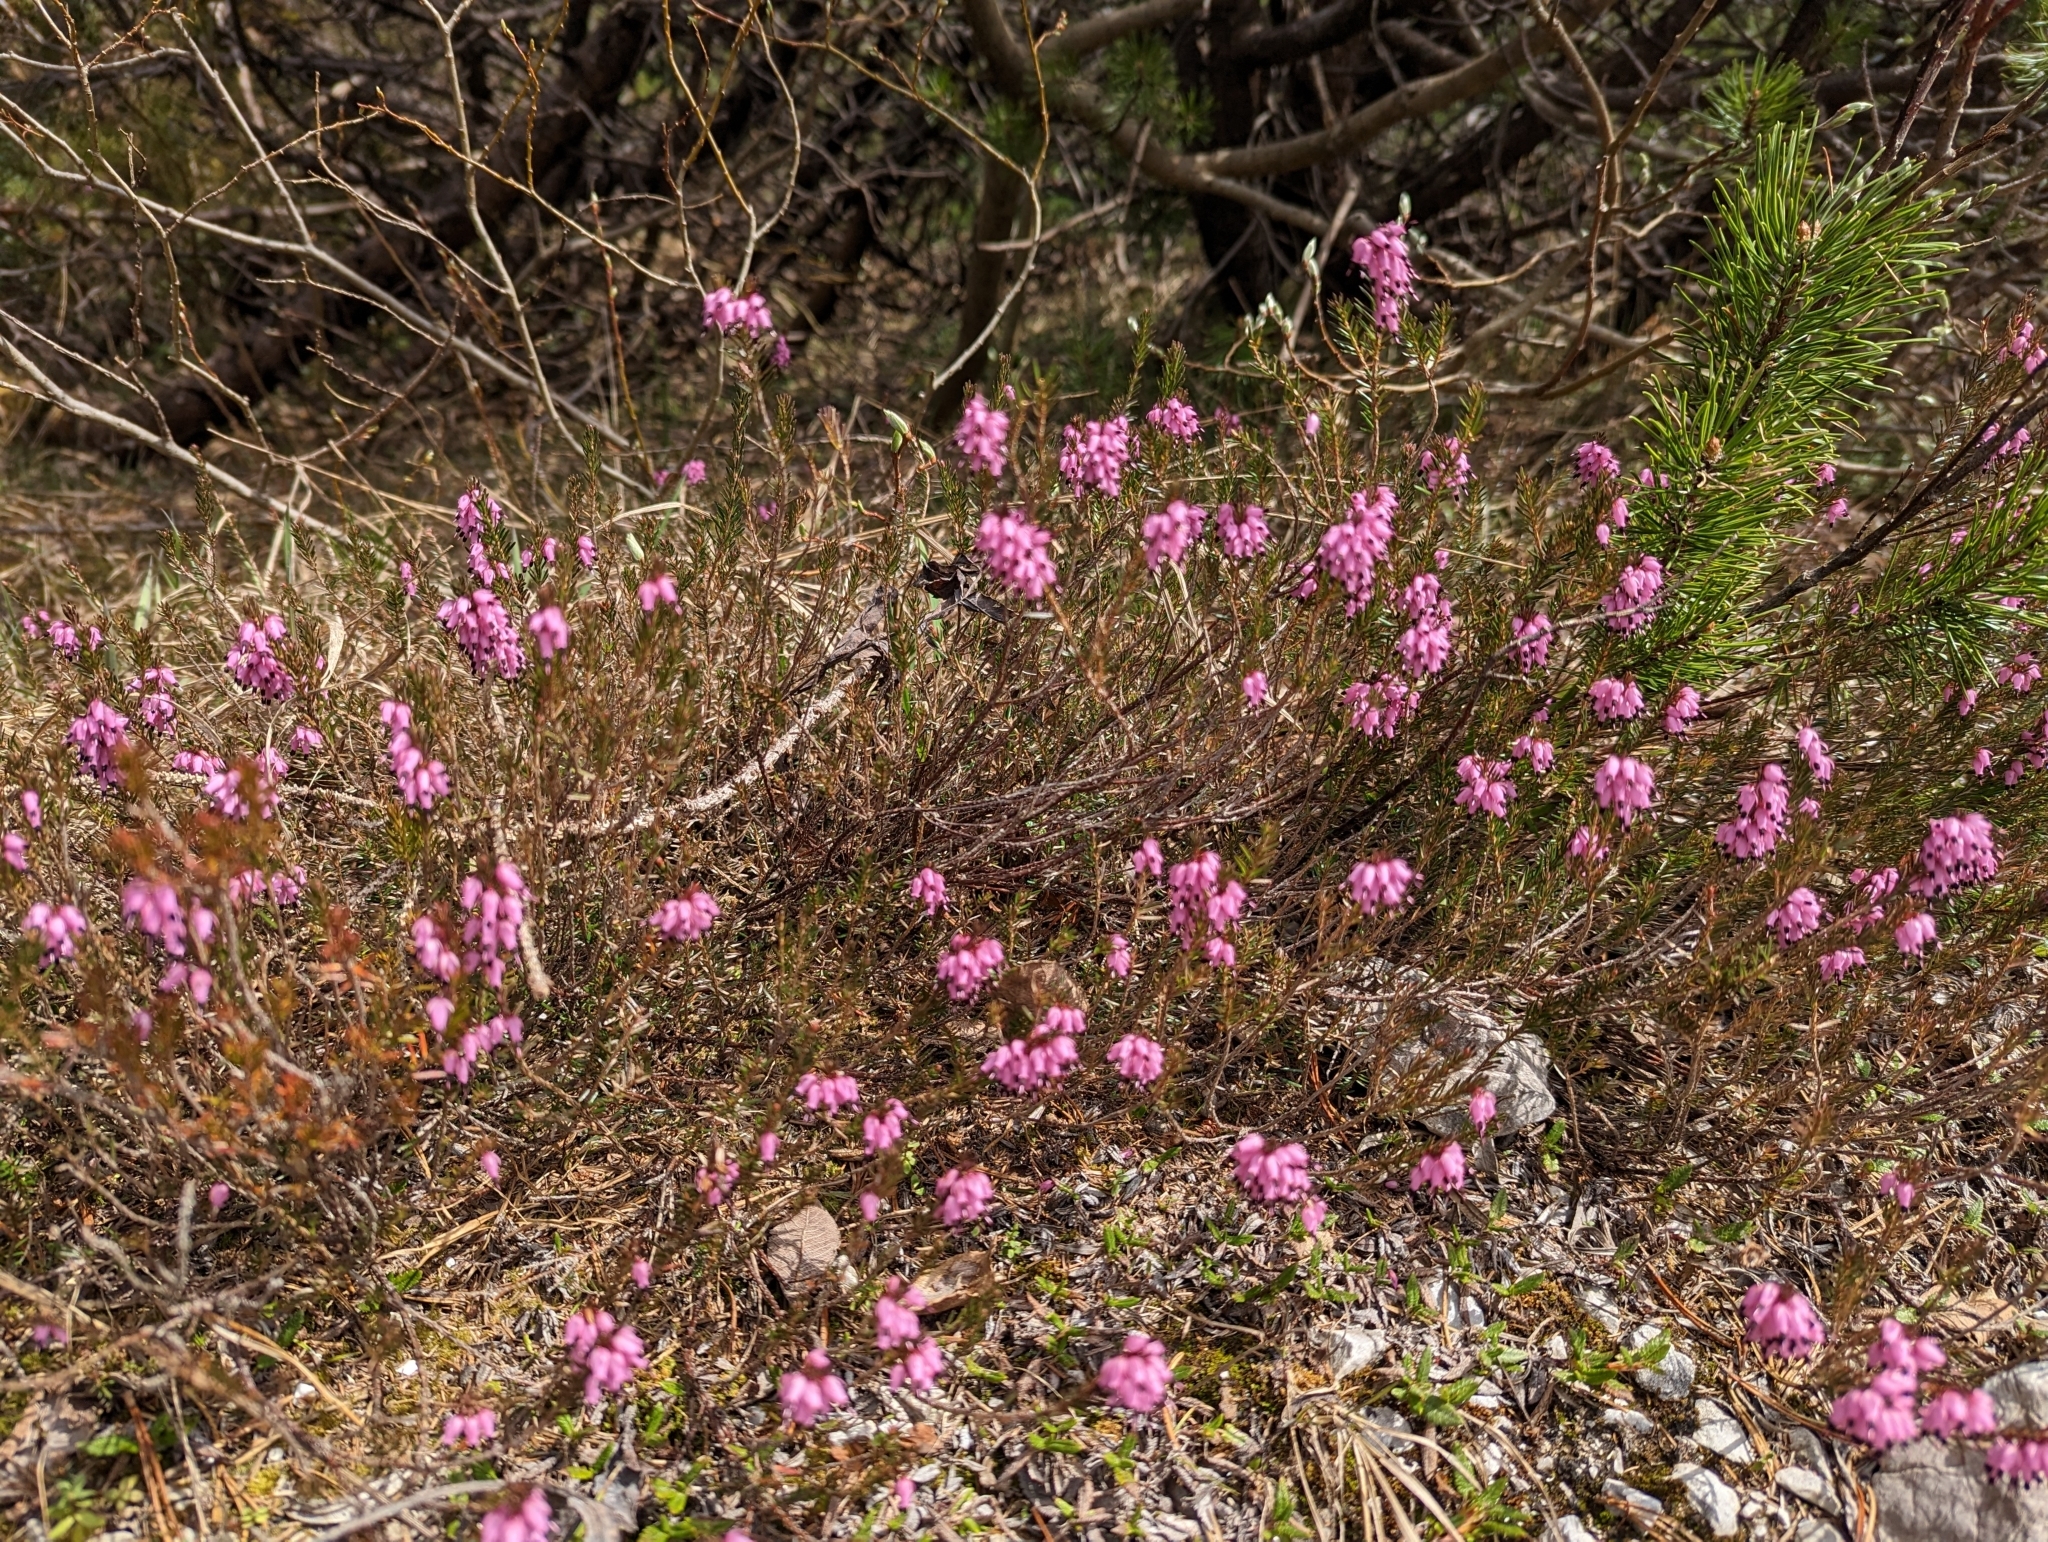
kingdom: Plantae
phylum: Tracheophyta
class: Magnoliopsida
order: Ericales
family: Ericaceae
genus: Erica
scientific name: Erica carnea
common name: Winter heath
